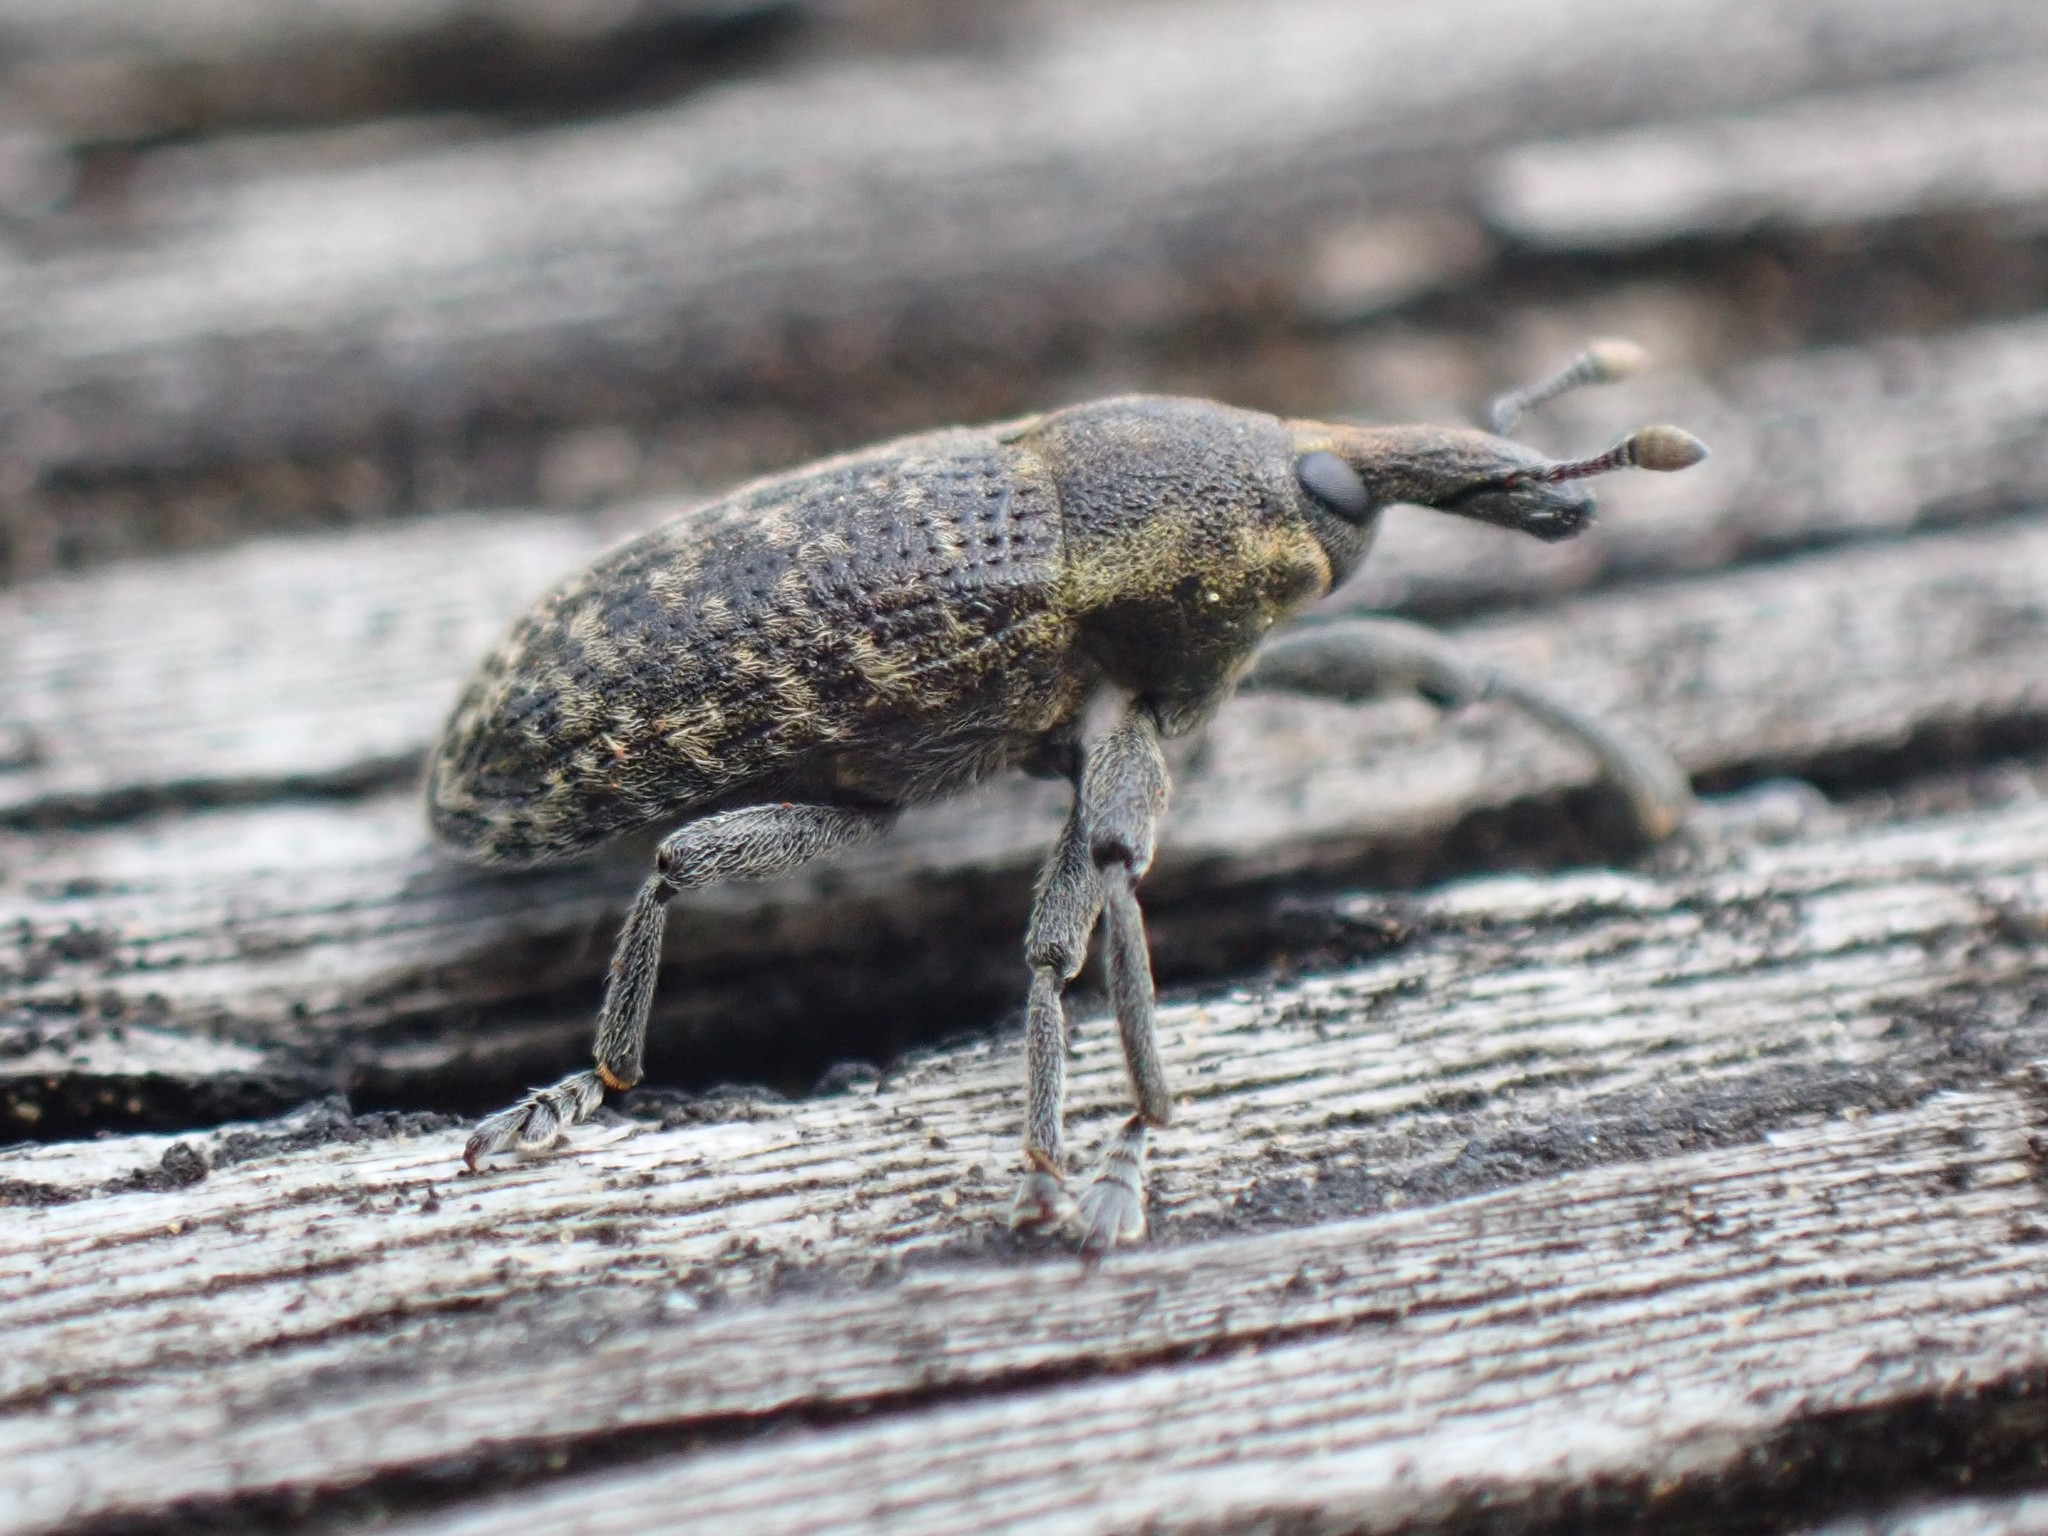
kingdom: Animalia
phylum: Arthropoda
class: Insecta
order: Coleoptera
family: Curculionidae
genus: Larinus
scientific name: Larinus carlinae
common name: Weevil
